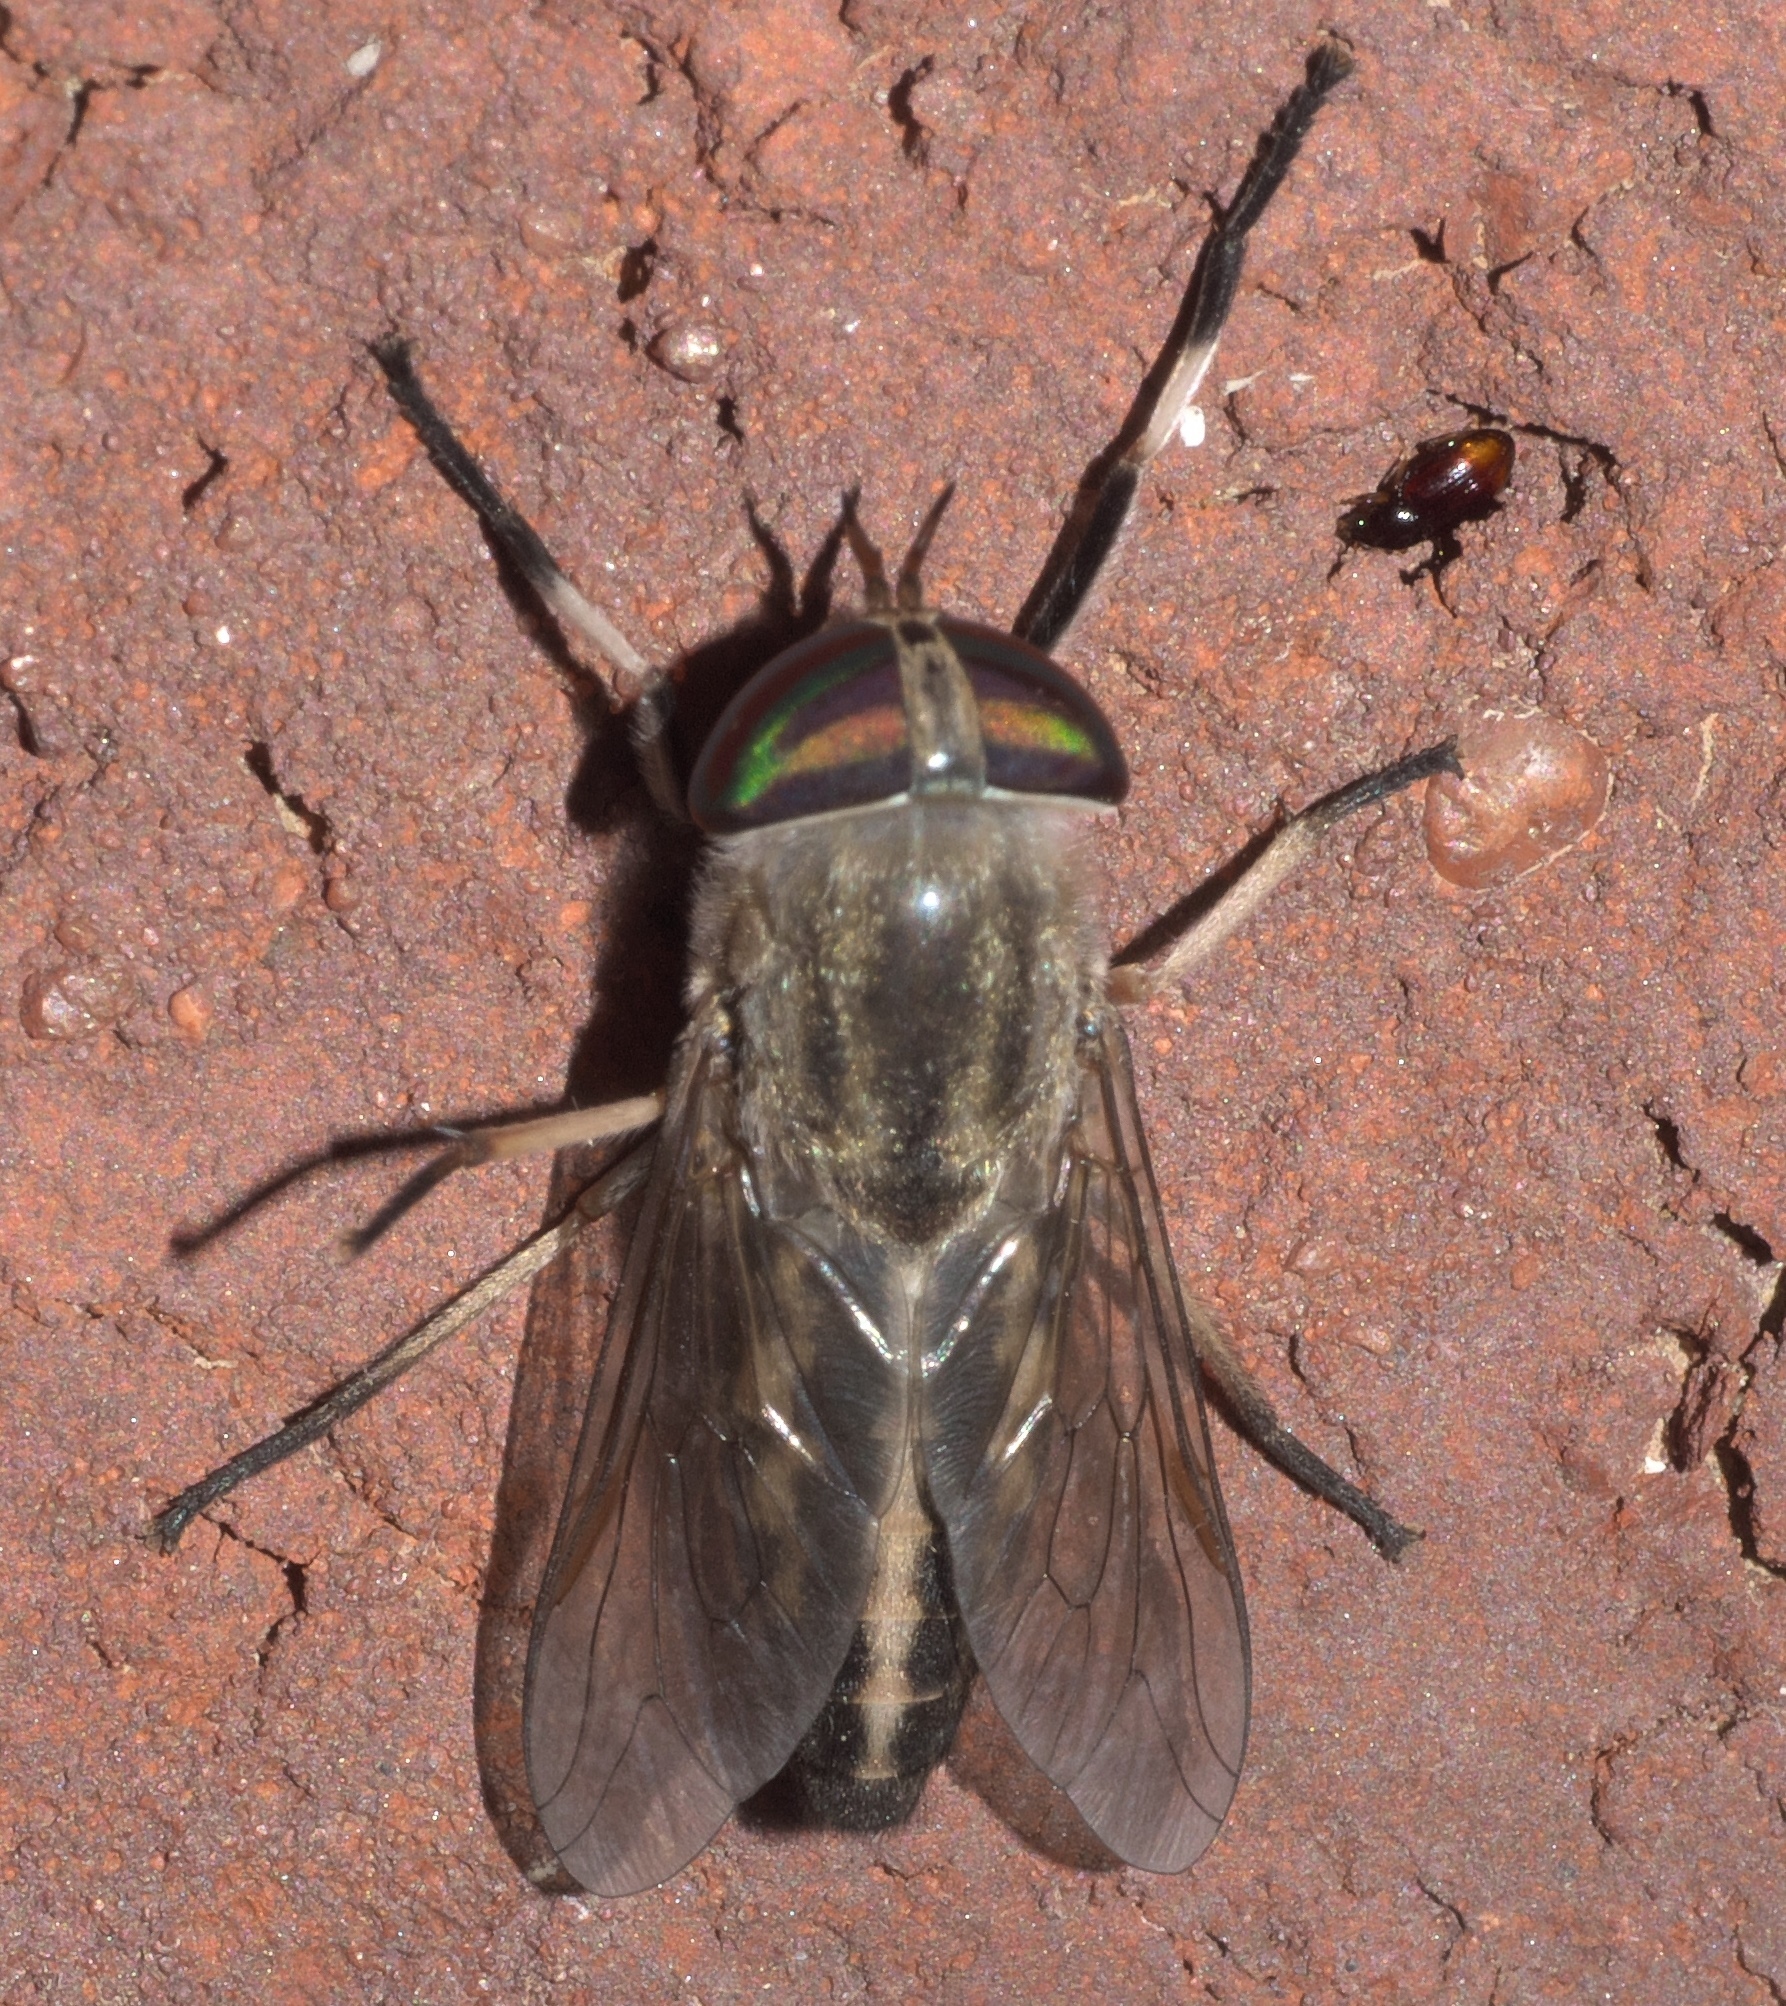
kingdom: Animalia
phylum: Arthropoda
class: Insecta
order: Diptera
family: Tabanidae
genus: Tabanus
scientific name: Tabanus subsimilis
